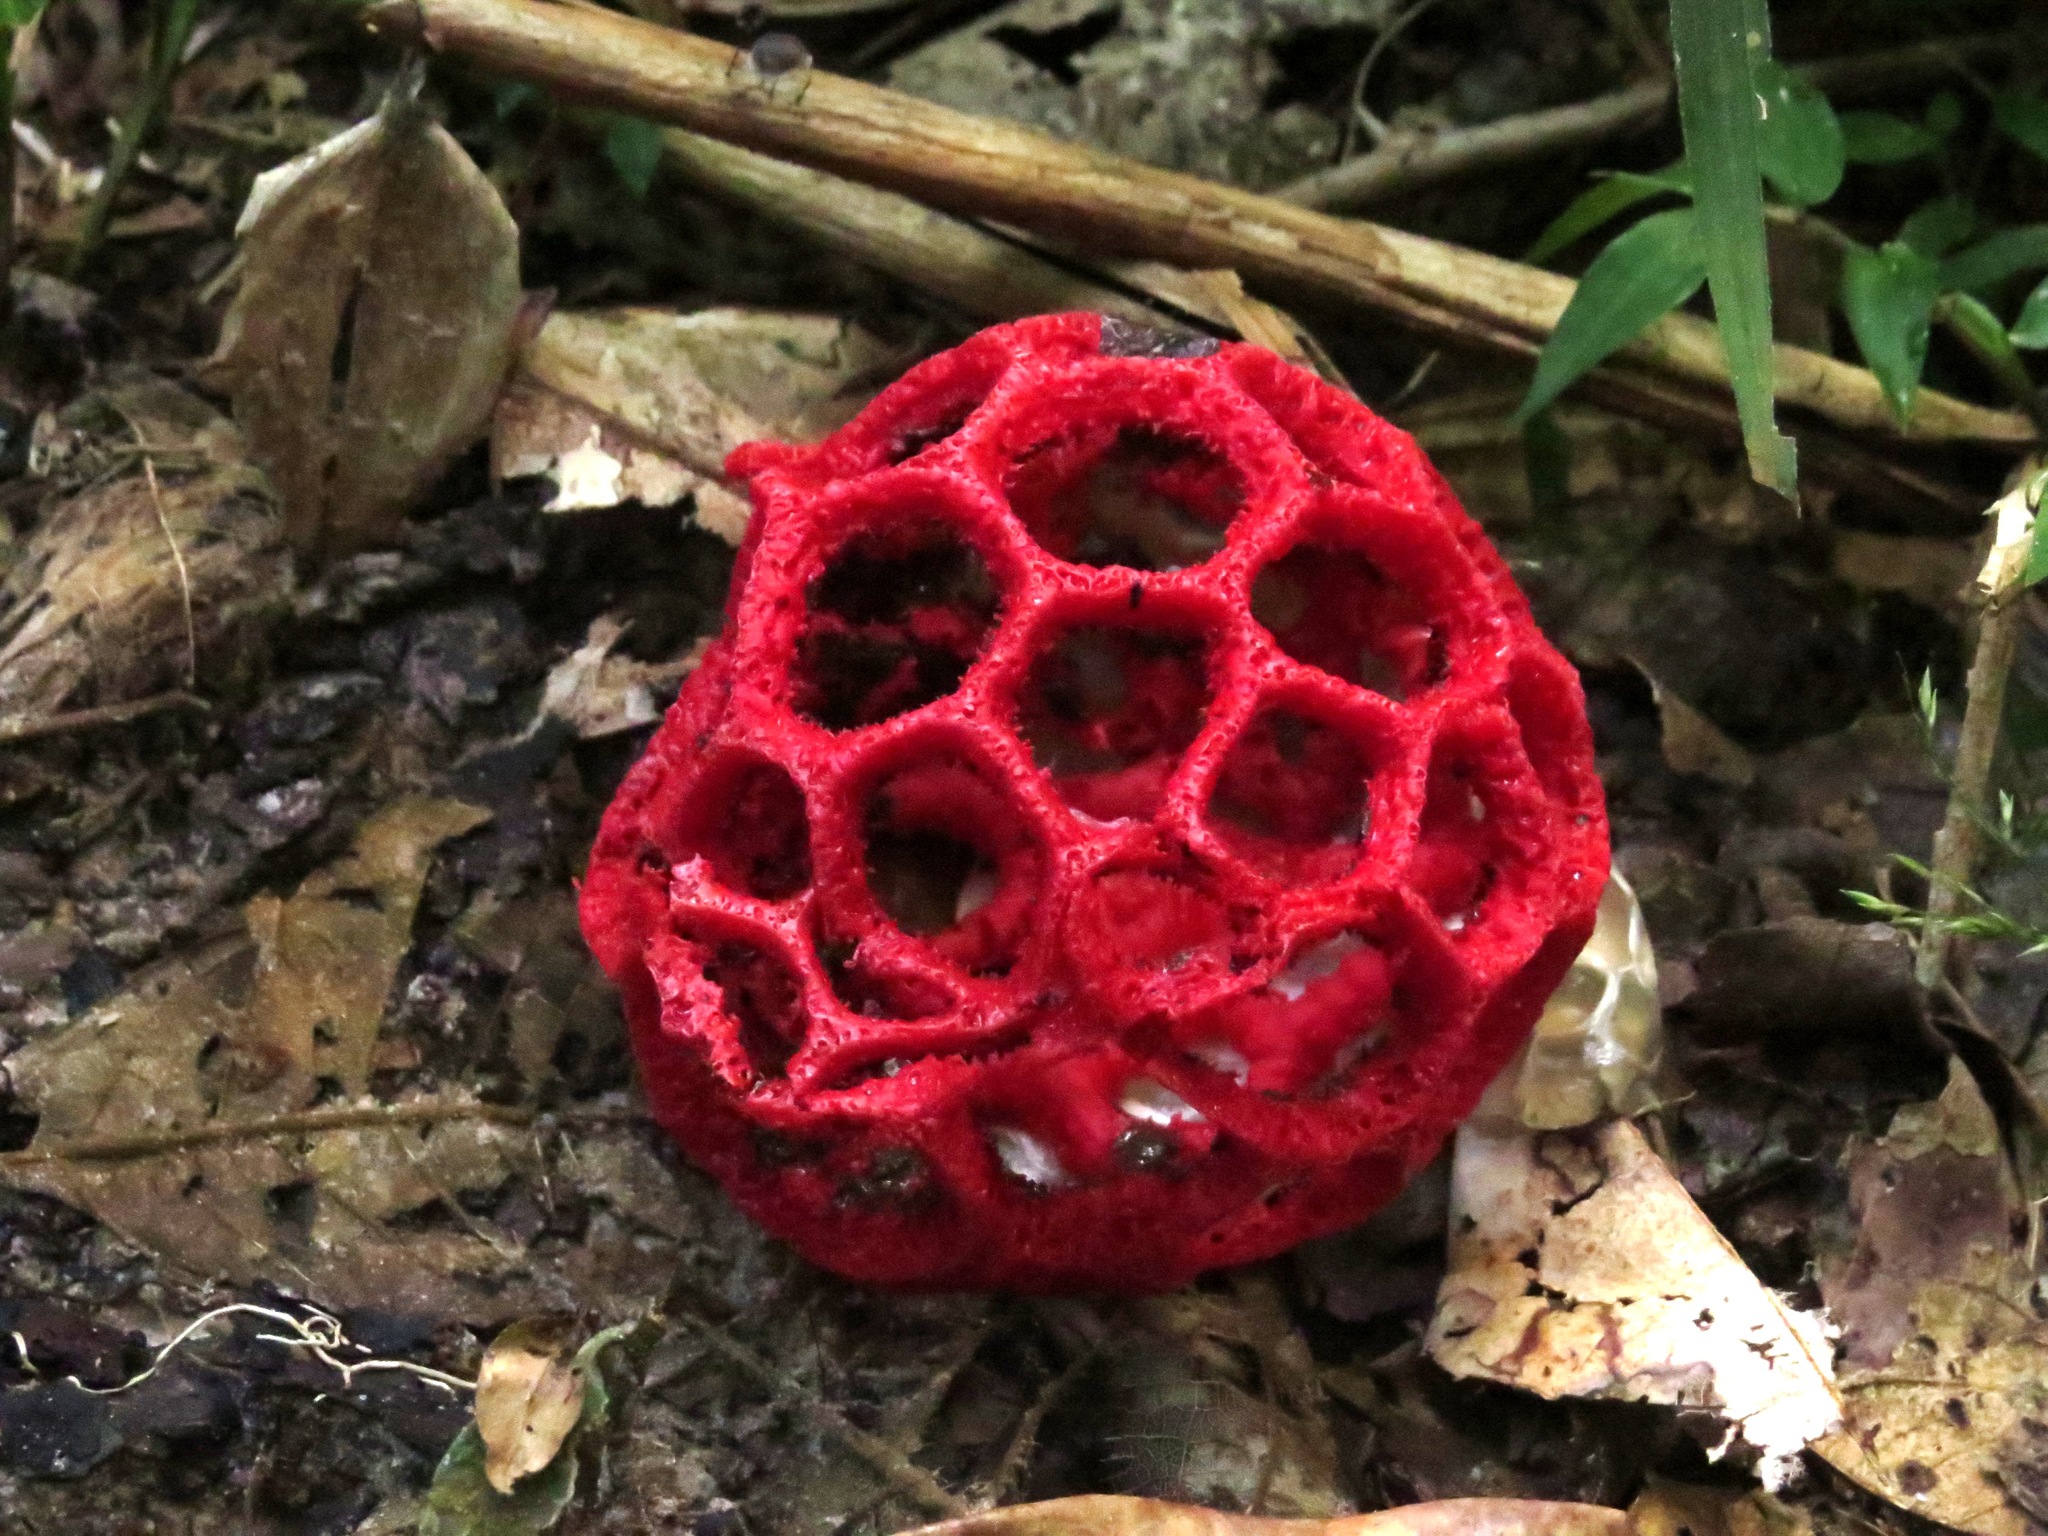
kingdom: Fungi
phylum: Basidiomycota
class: Agaricomycetes
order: Phallales
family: Phallaceae
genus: Clathrus
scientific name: Clathrus cristatus
